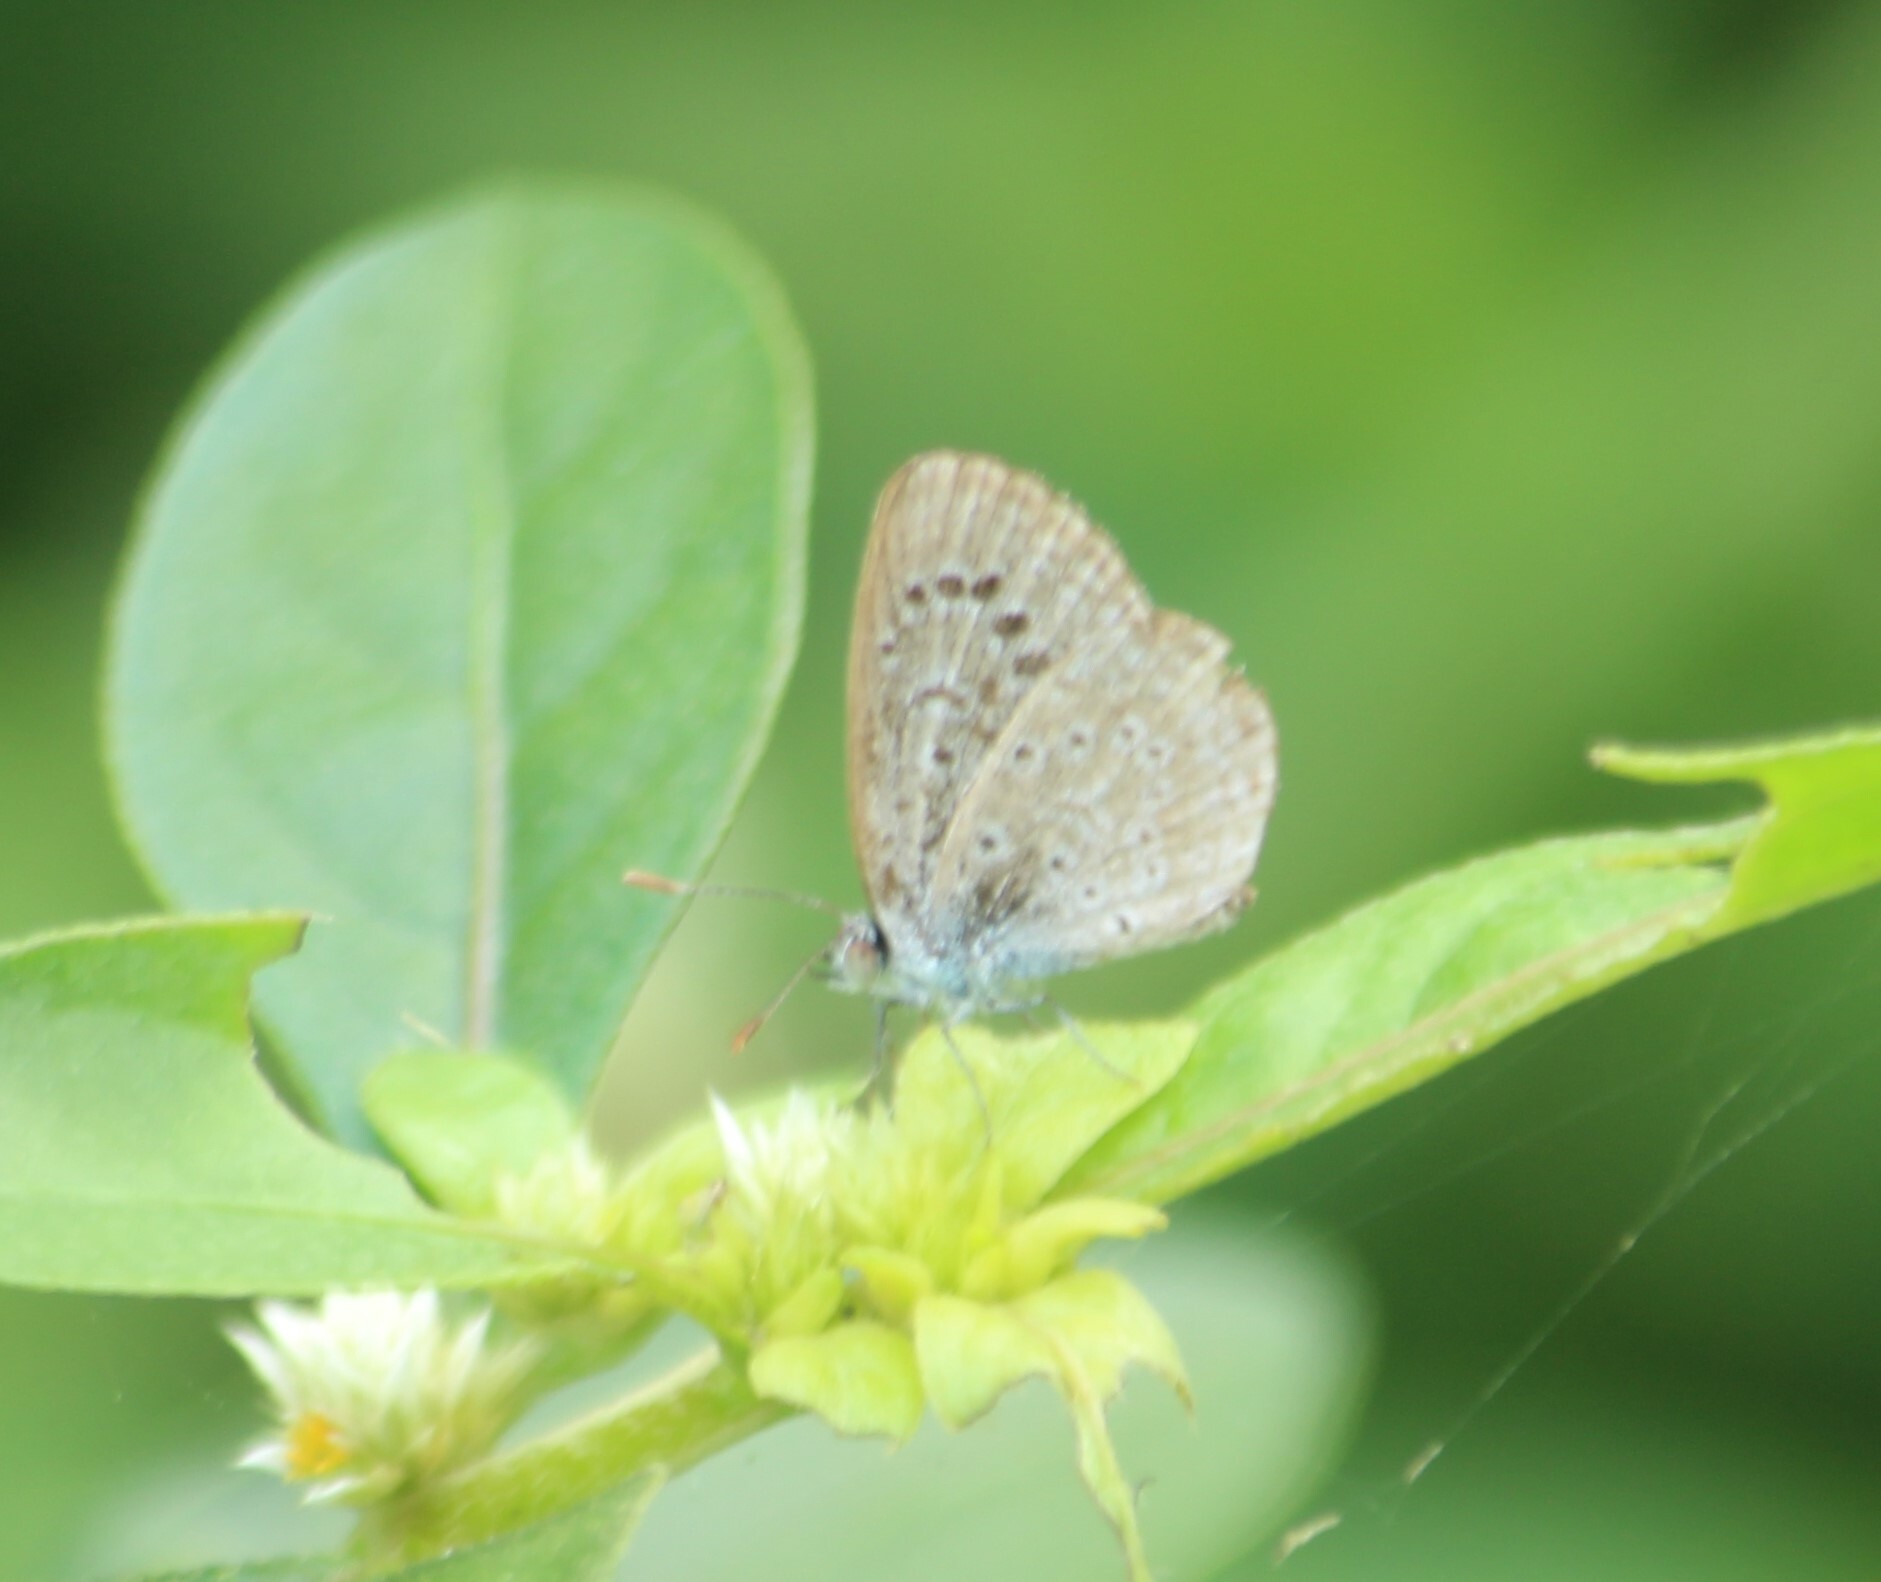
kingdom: Animalia
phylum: Arthropoda
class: Insecta
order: Lepidoptera
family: Lycaenidae
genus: Zizeeria
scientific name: Zizeeria karsandra
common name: Dark grass blue
